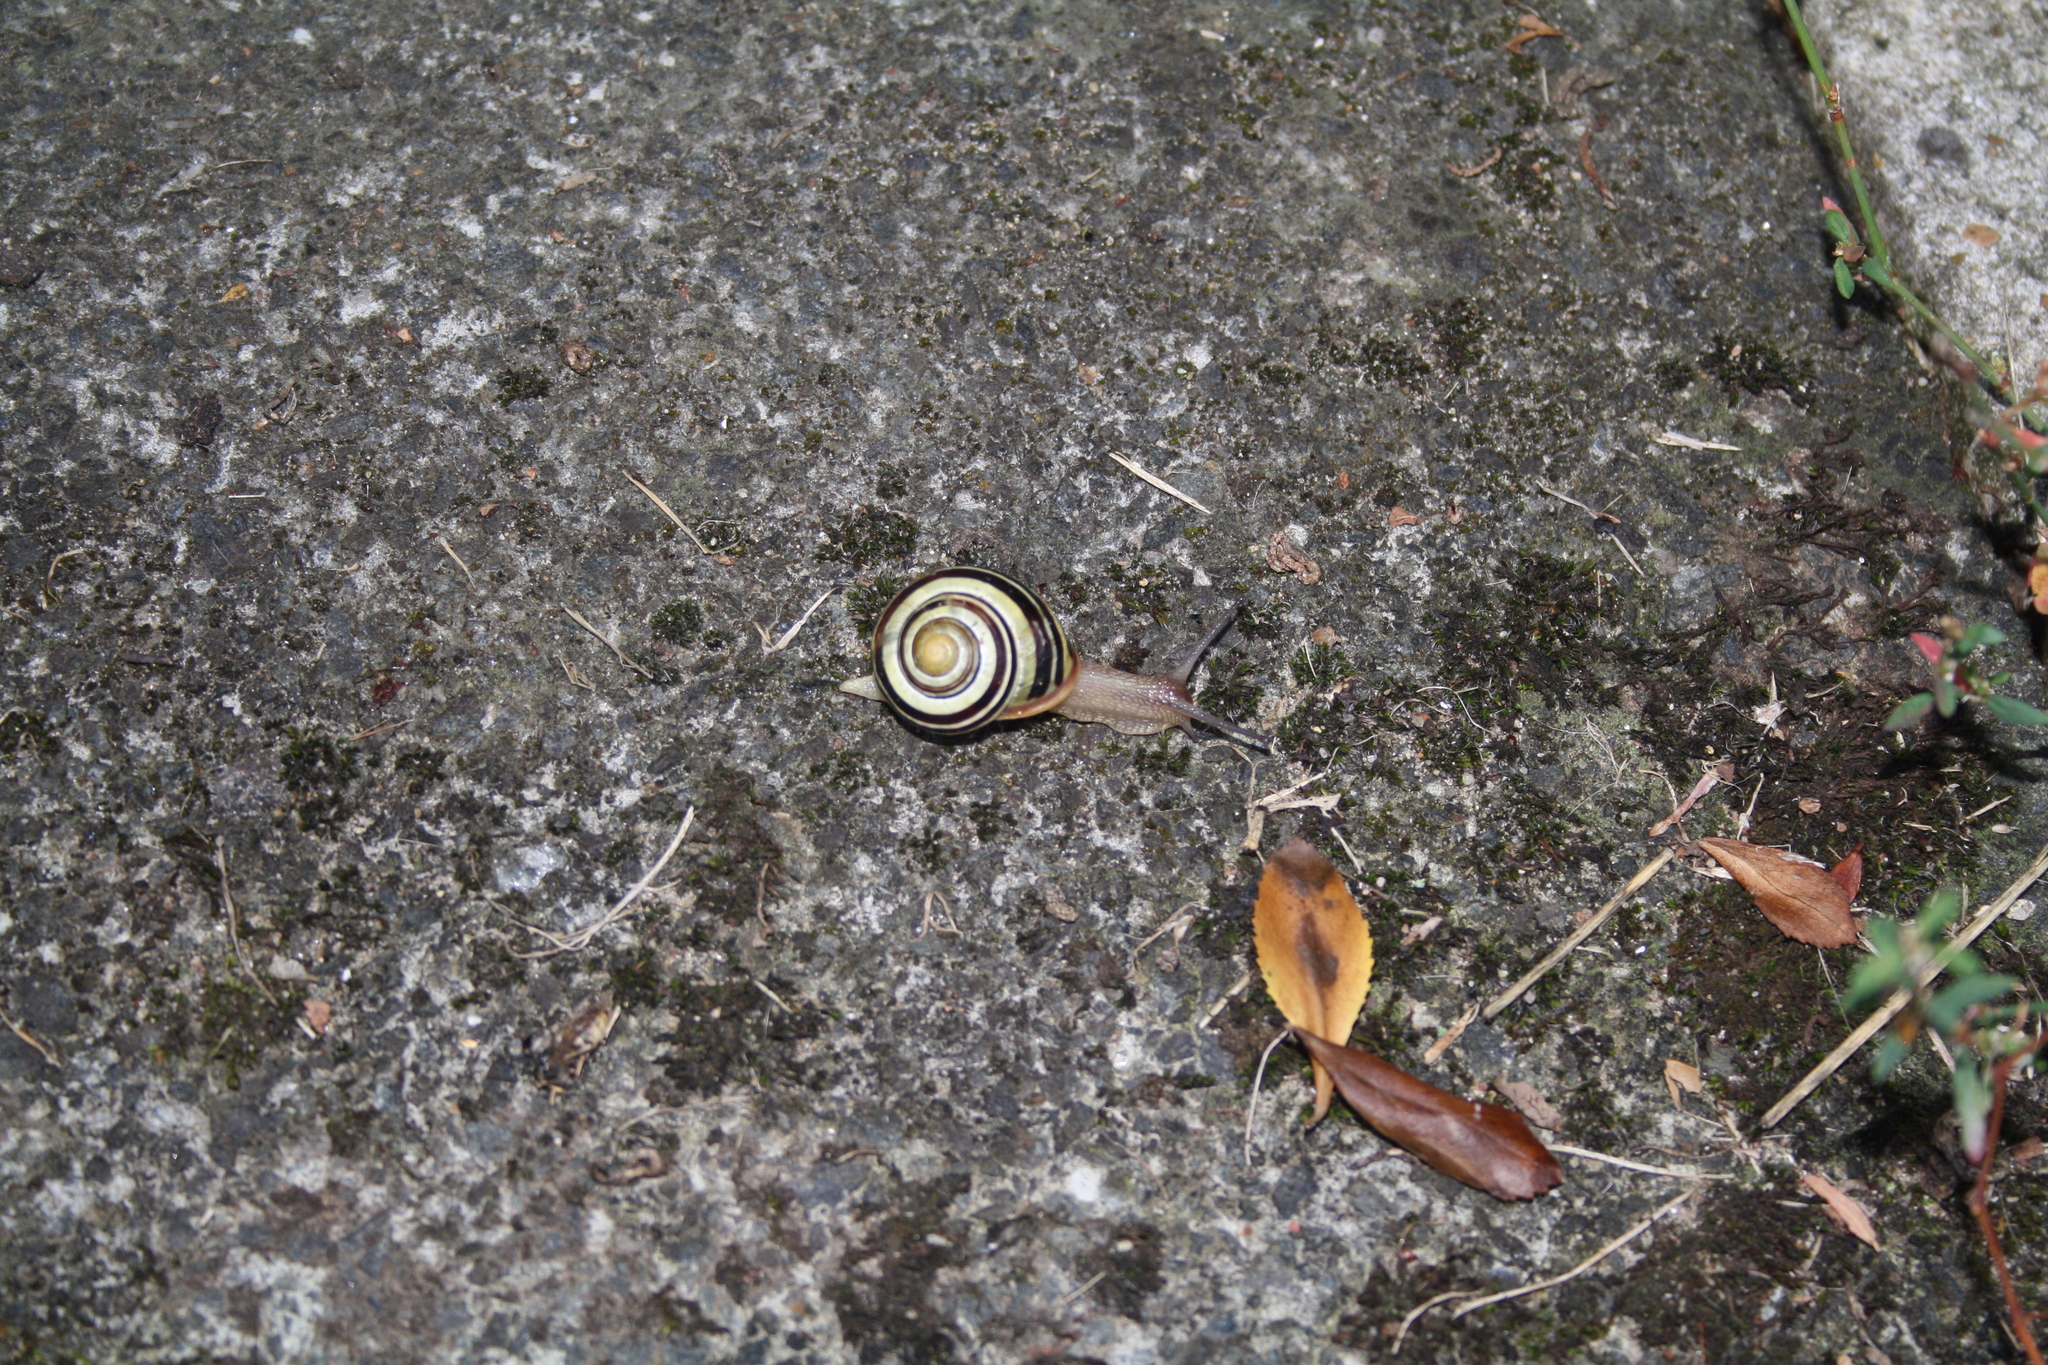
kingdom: Animalia
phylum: Mollusca
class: Gastropoda
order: Stylommatophora
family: Helicidae
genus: Cepaea
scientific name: Cepaea nemoralis
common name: Grovesnail
